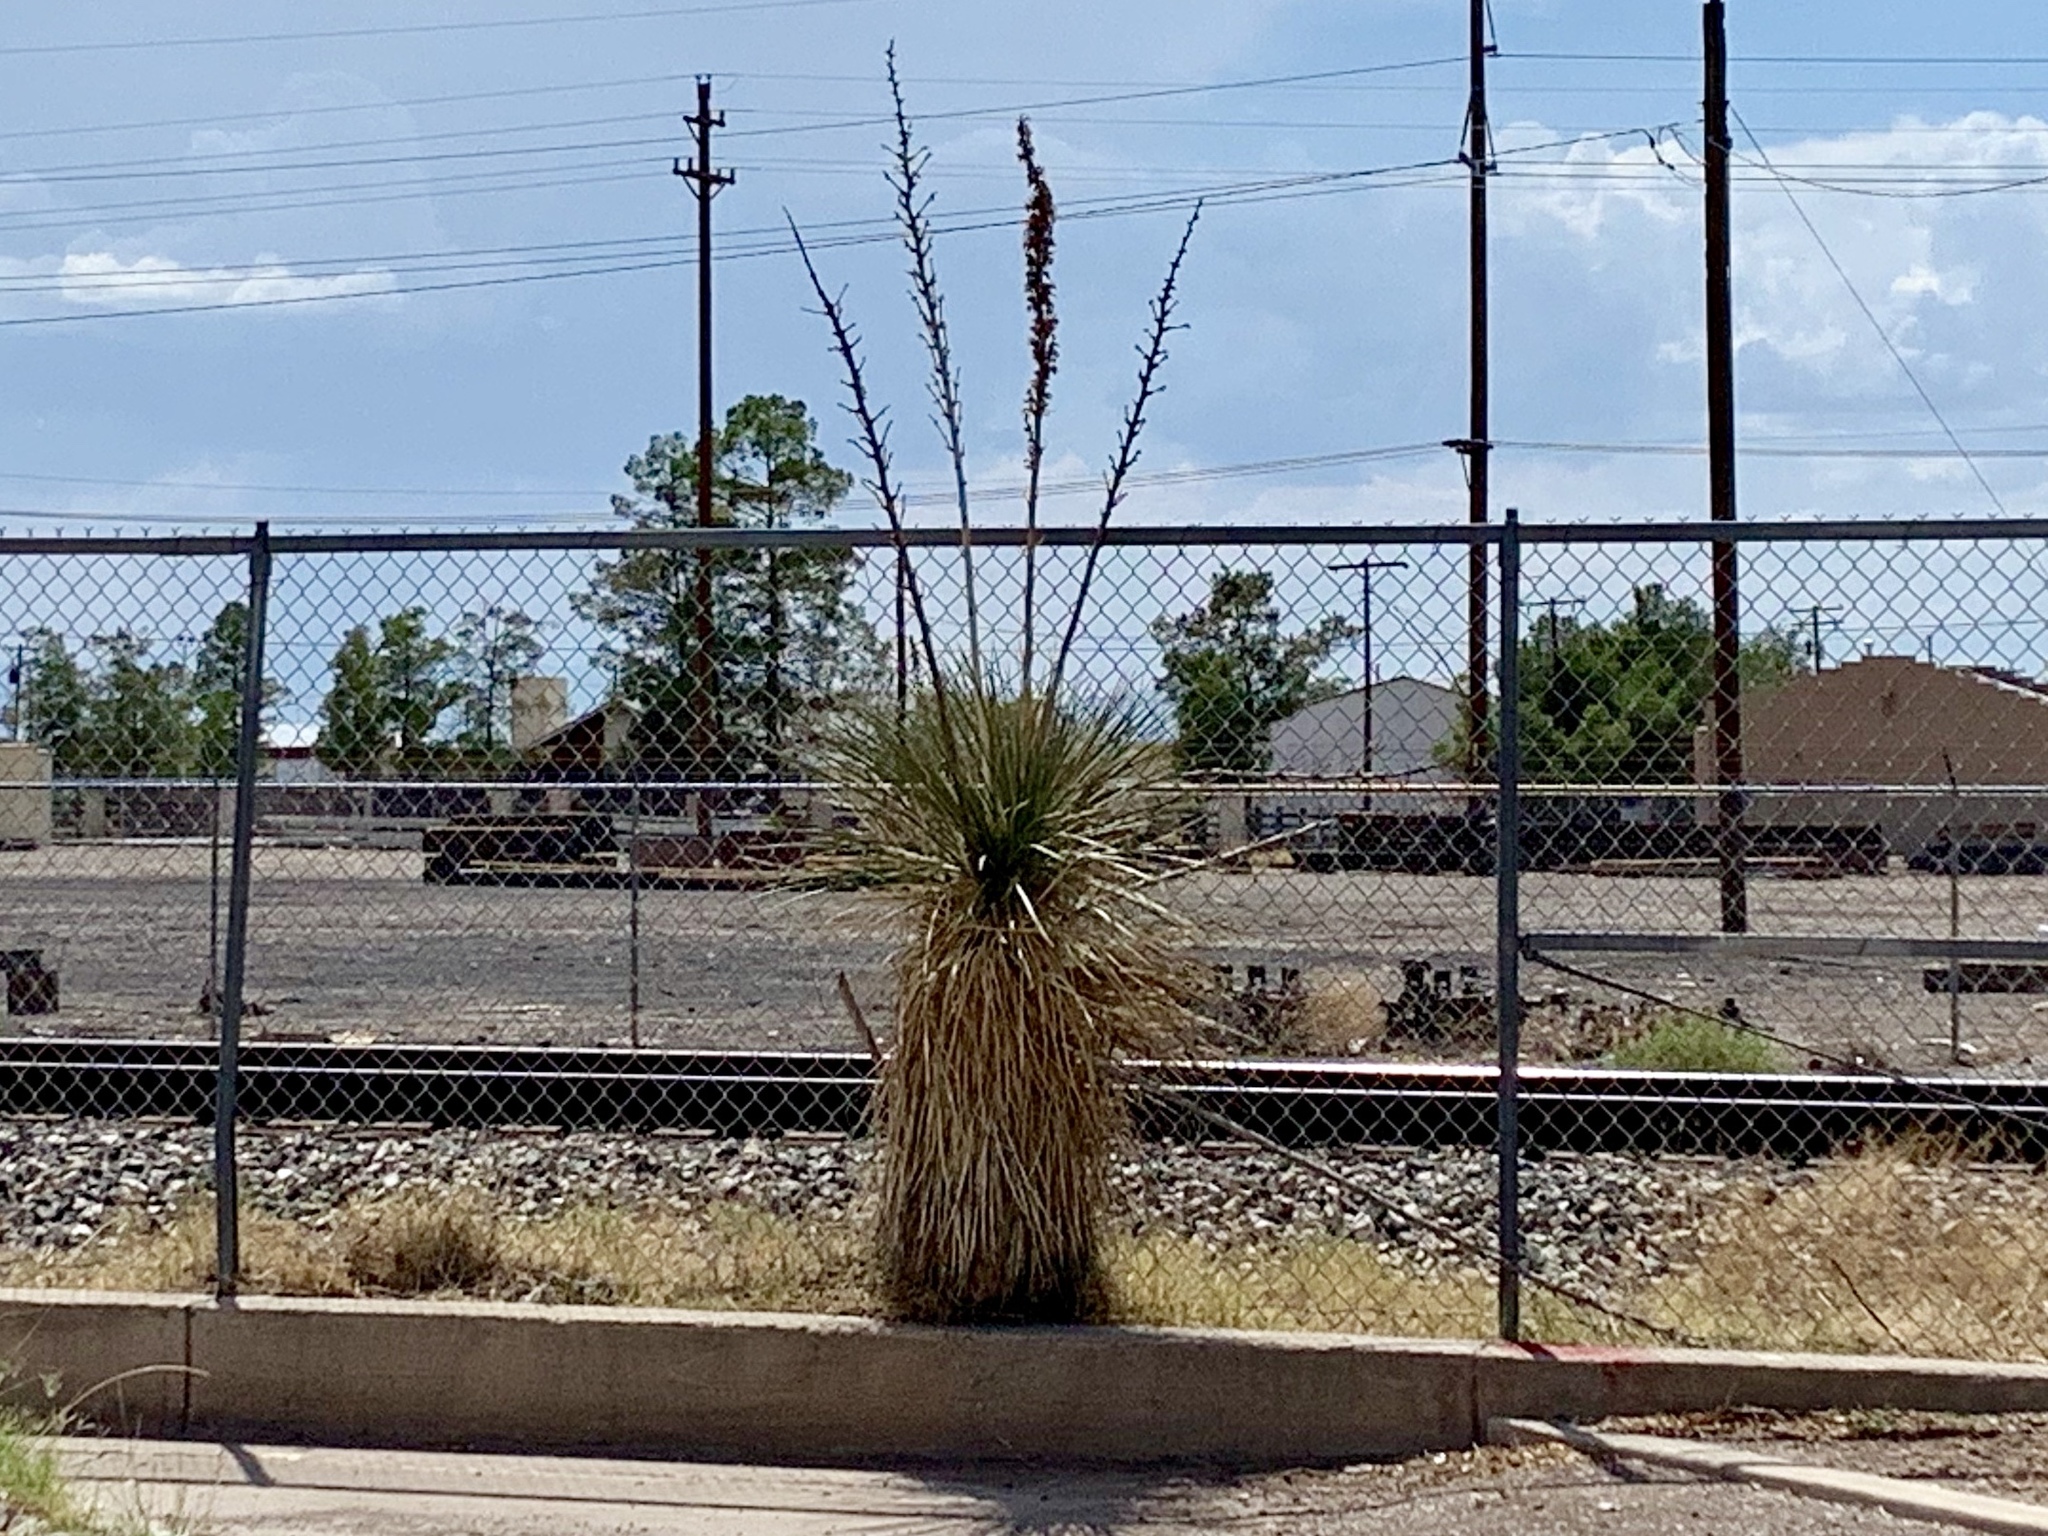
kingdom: Plantae
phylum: Tracheophyta
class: Liliopsida
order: Asparagales
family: Asparagaceae
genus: Yucca
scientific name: Yucca elata
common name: Palmella
